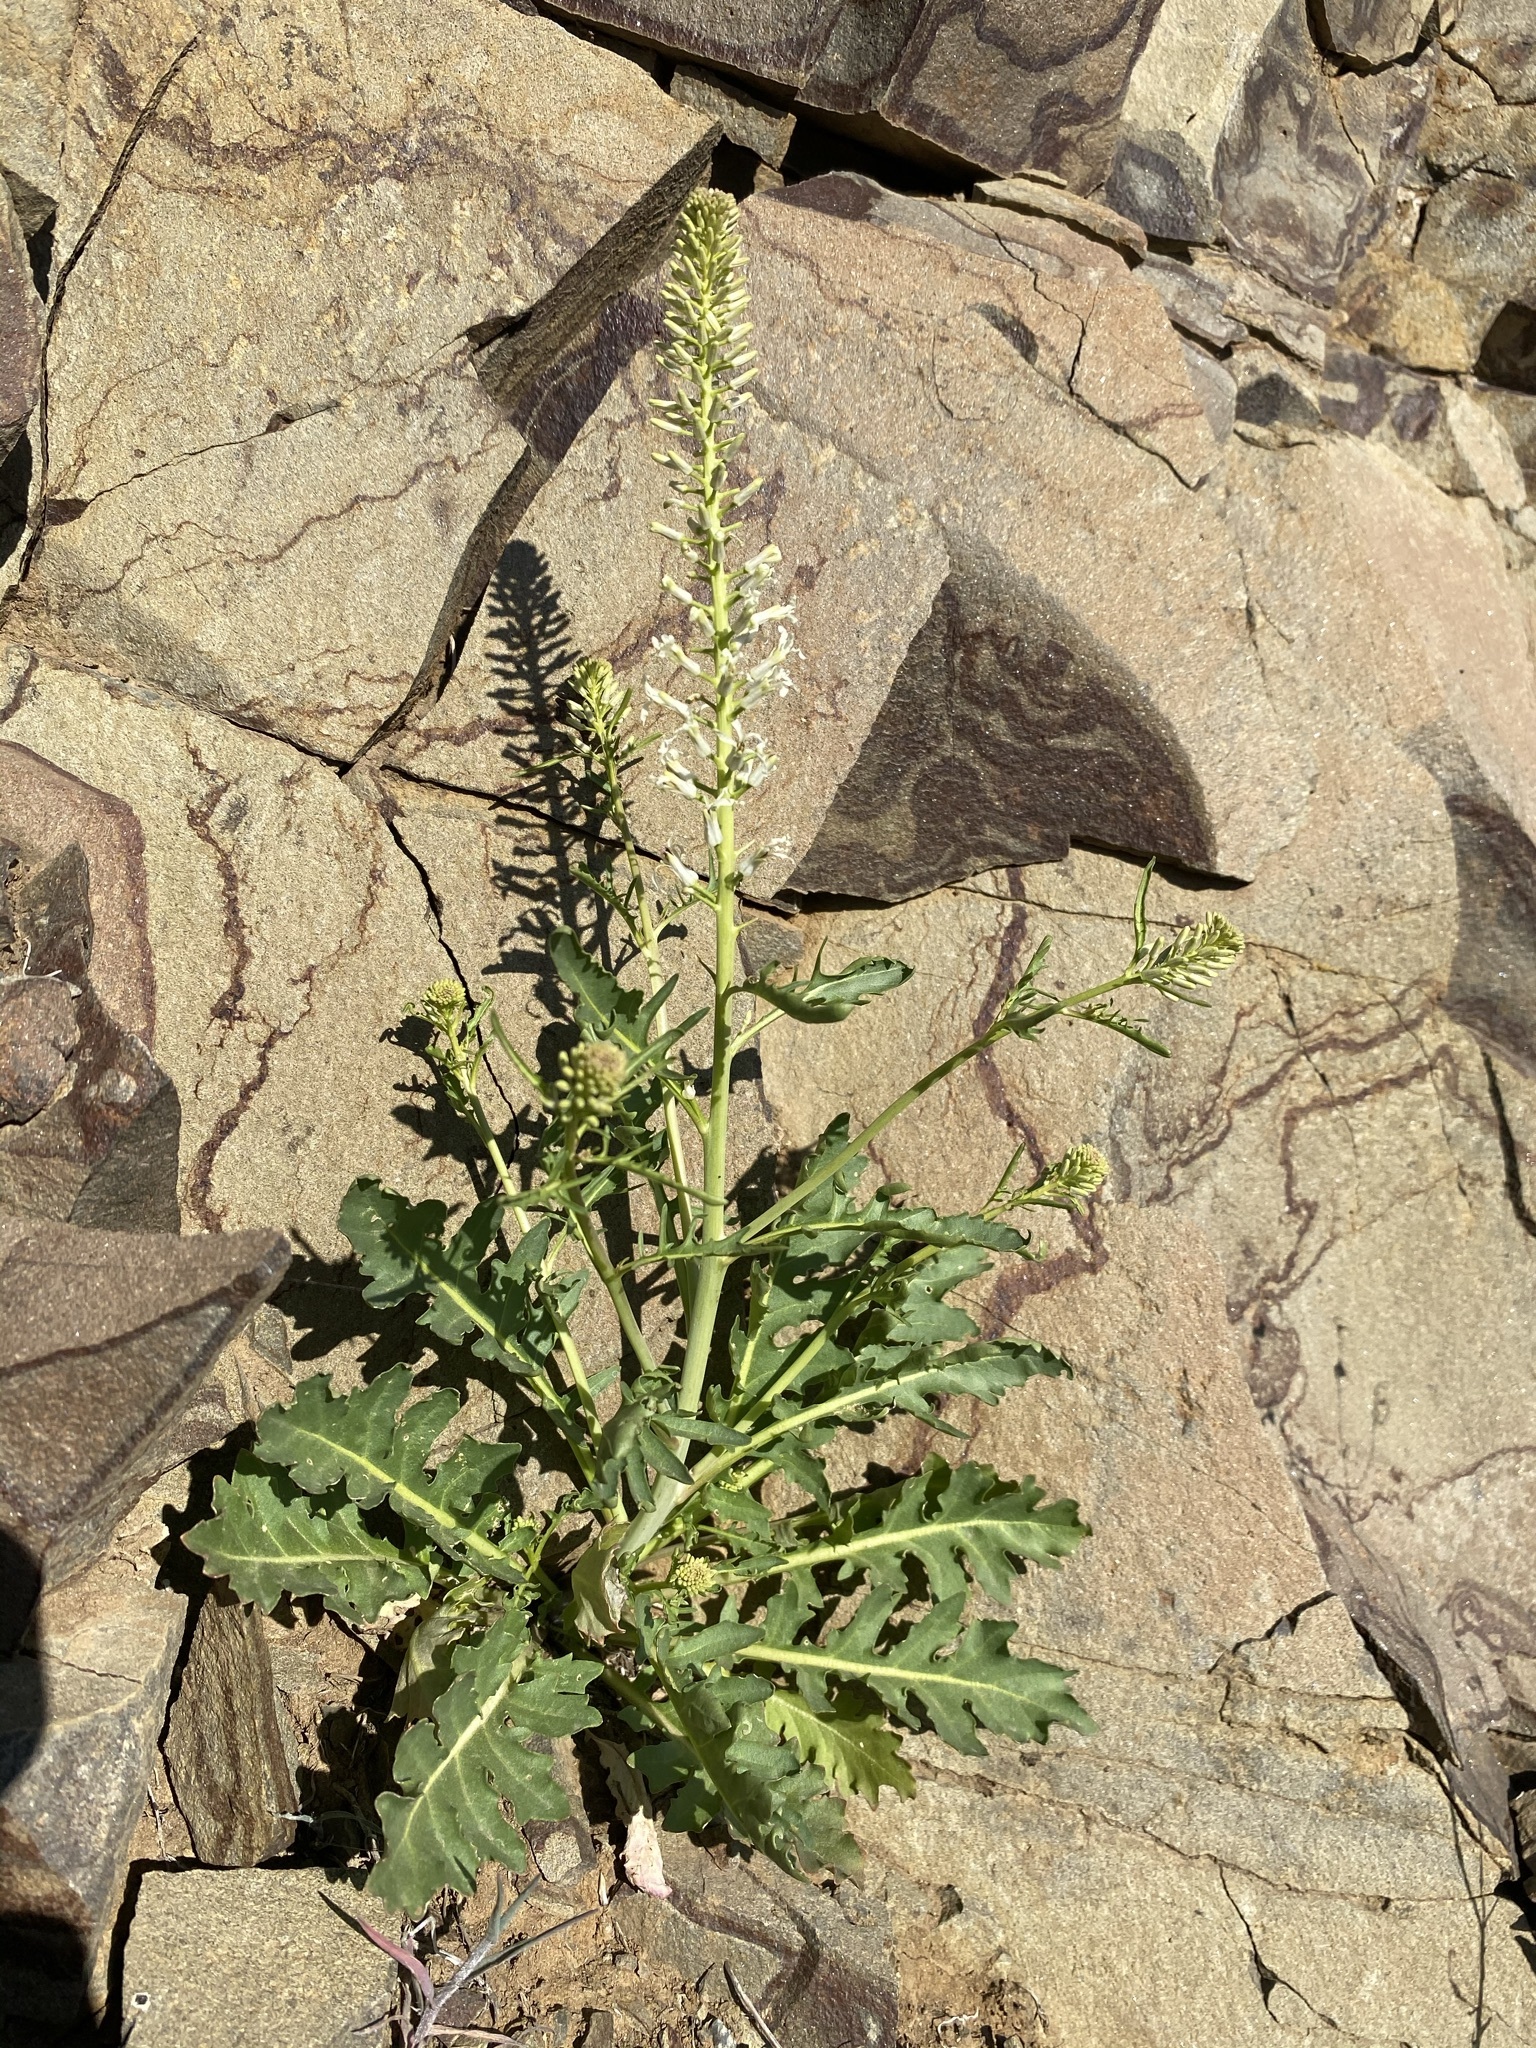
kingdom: Plantae
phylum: Tracheophyta
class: Magnoliopsida
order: Brassicales
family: Brassicaceae
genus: Thelypodium
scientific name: Thelypodium laciniatum
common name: Cut-leaved thelypody
